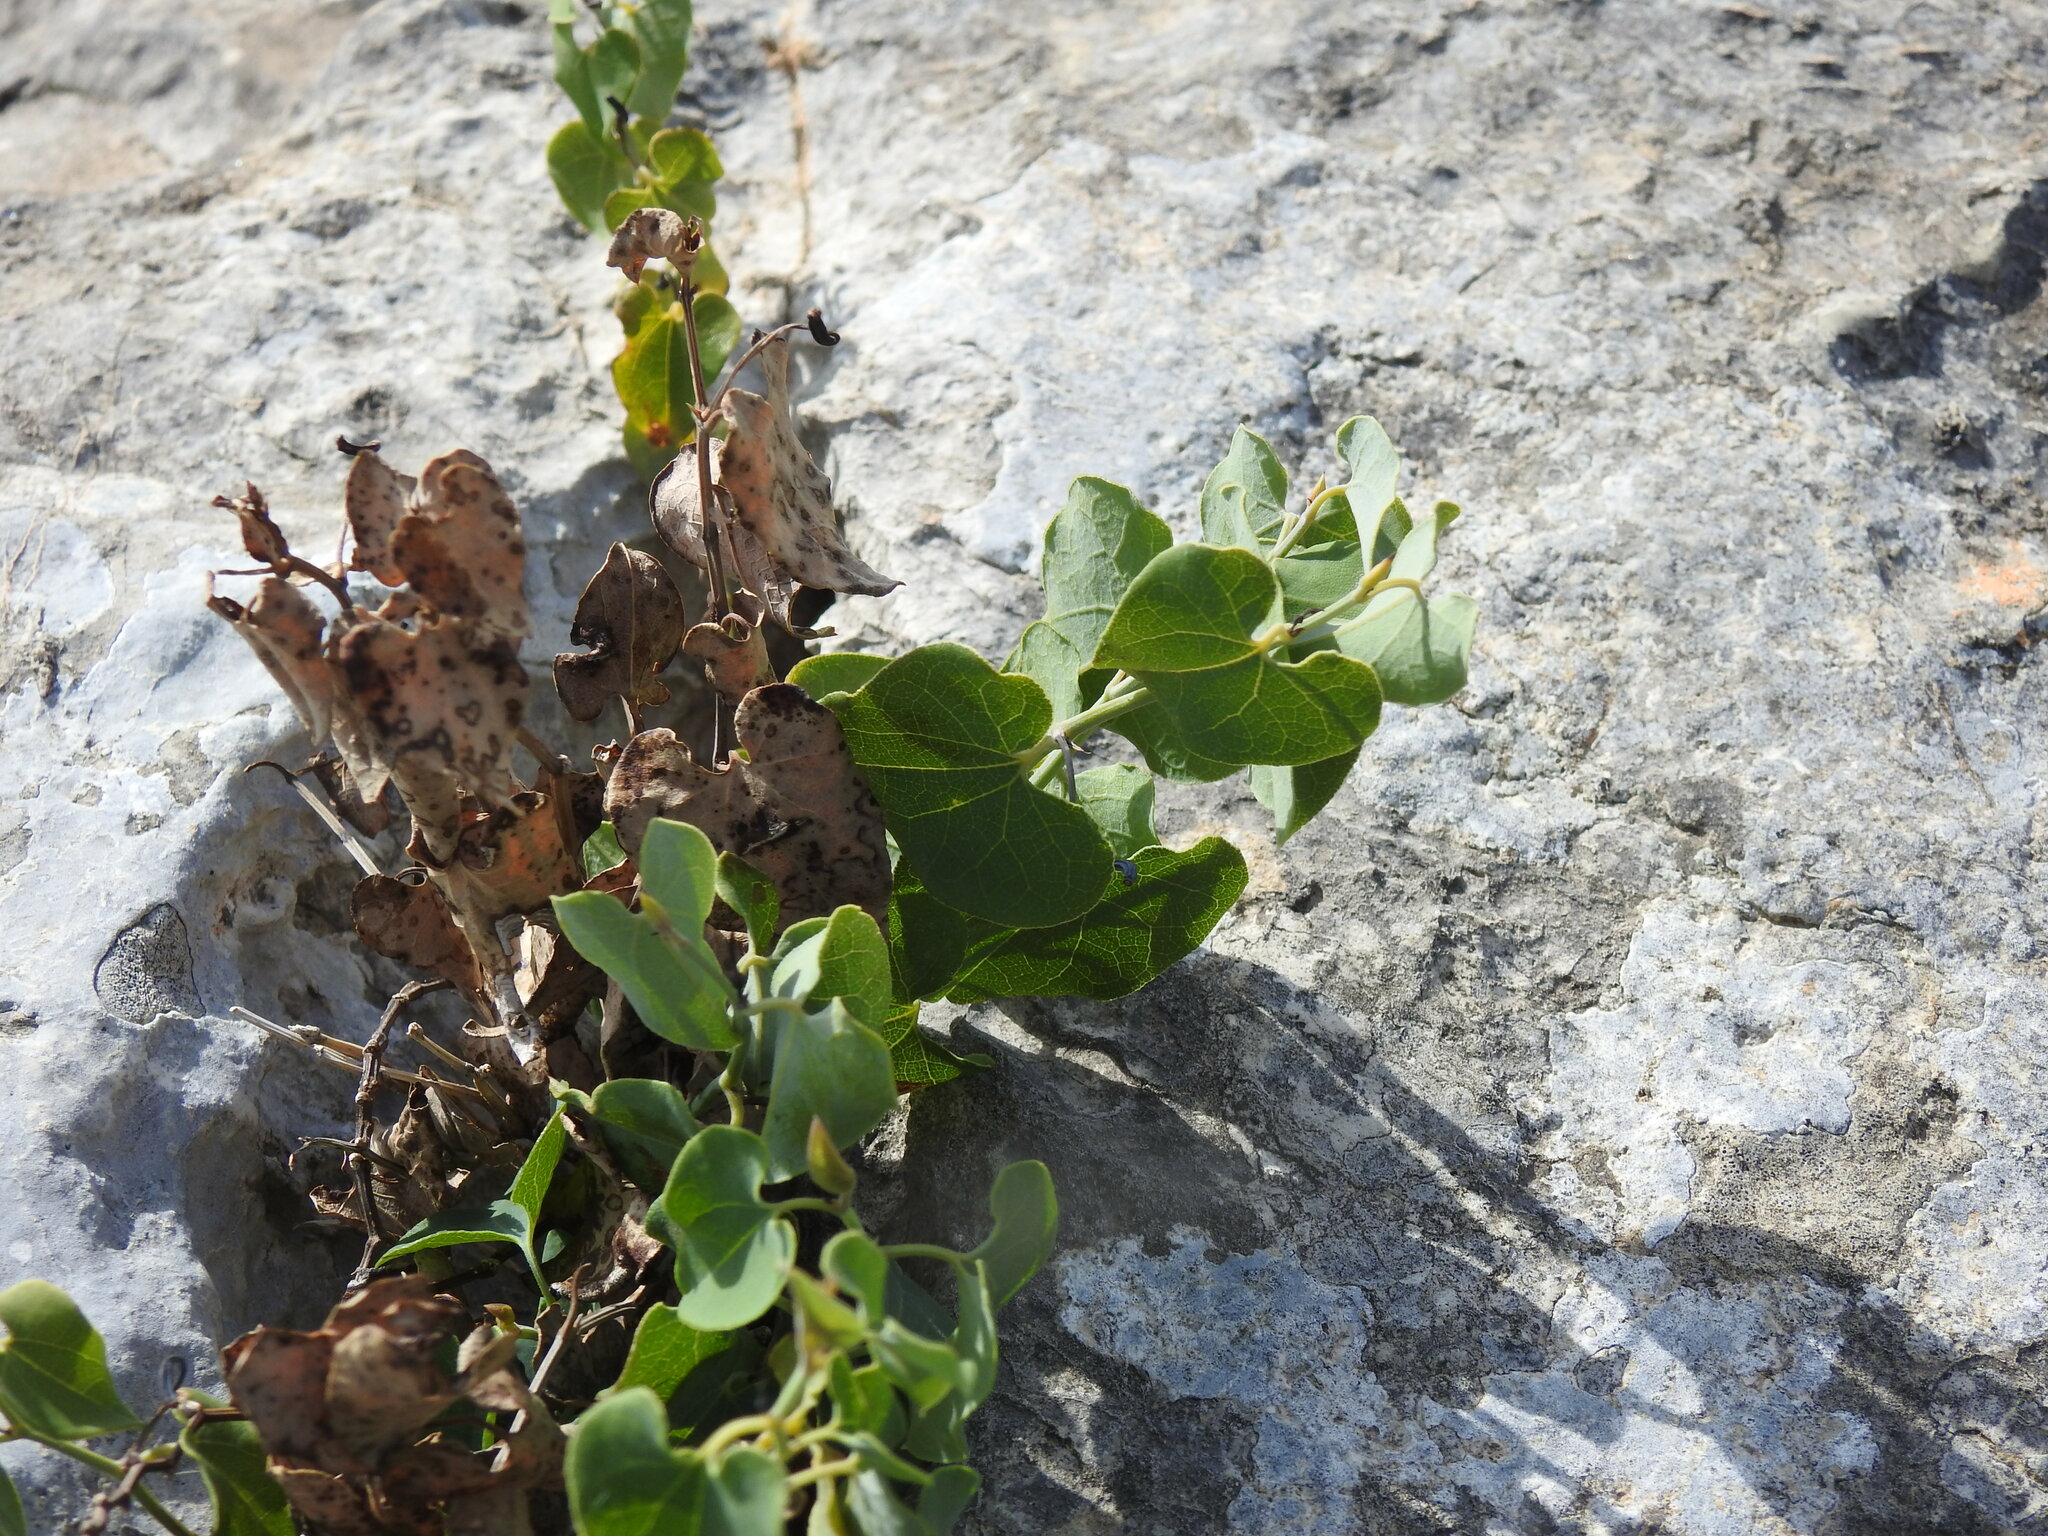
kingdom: Plantae
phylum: Tracheophyta
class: Magnoliopsida
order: Piperales
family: Aristolochiaceae
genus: Aristolochia
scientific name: Aristolochia baetica
